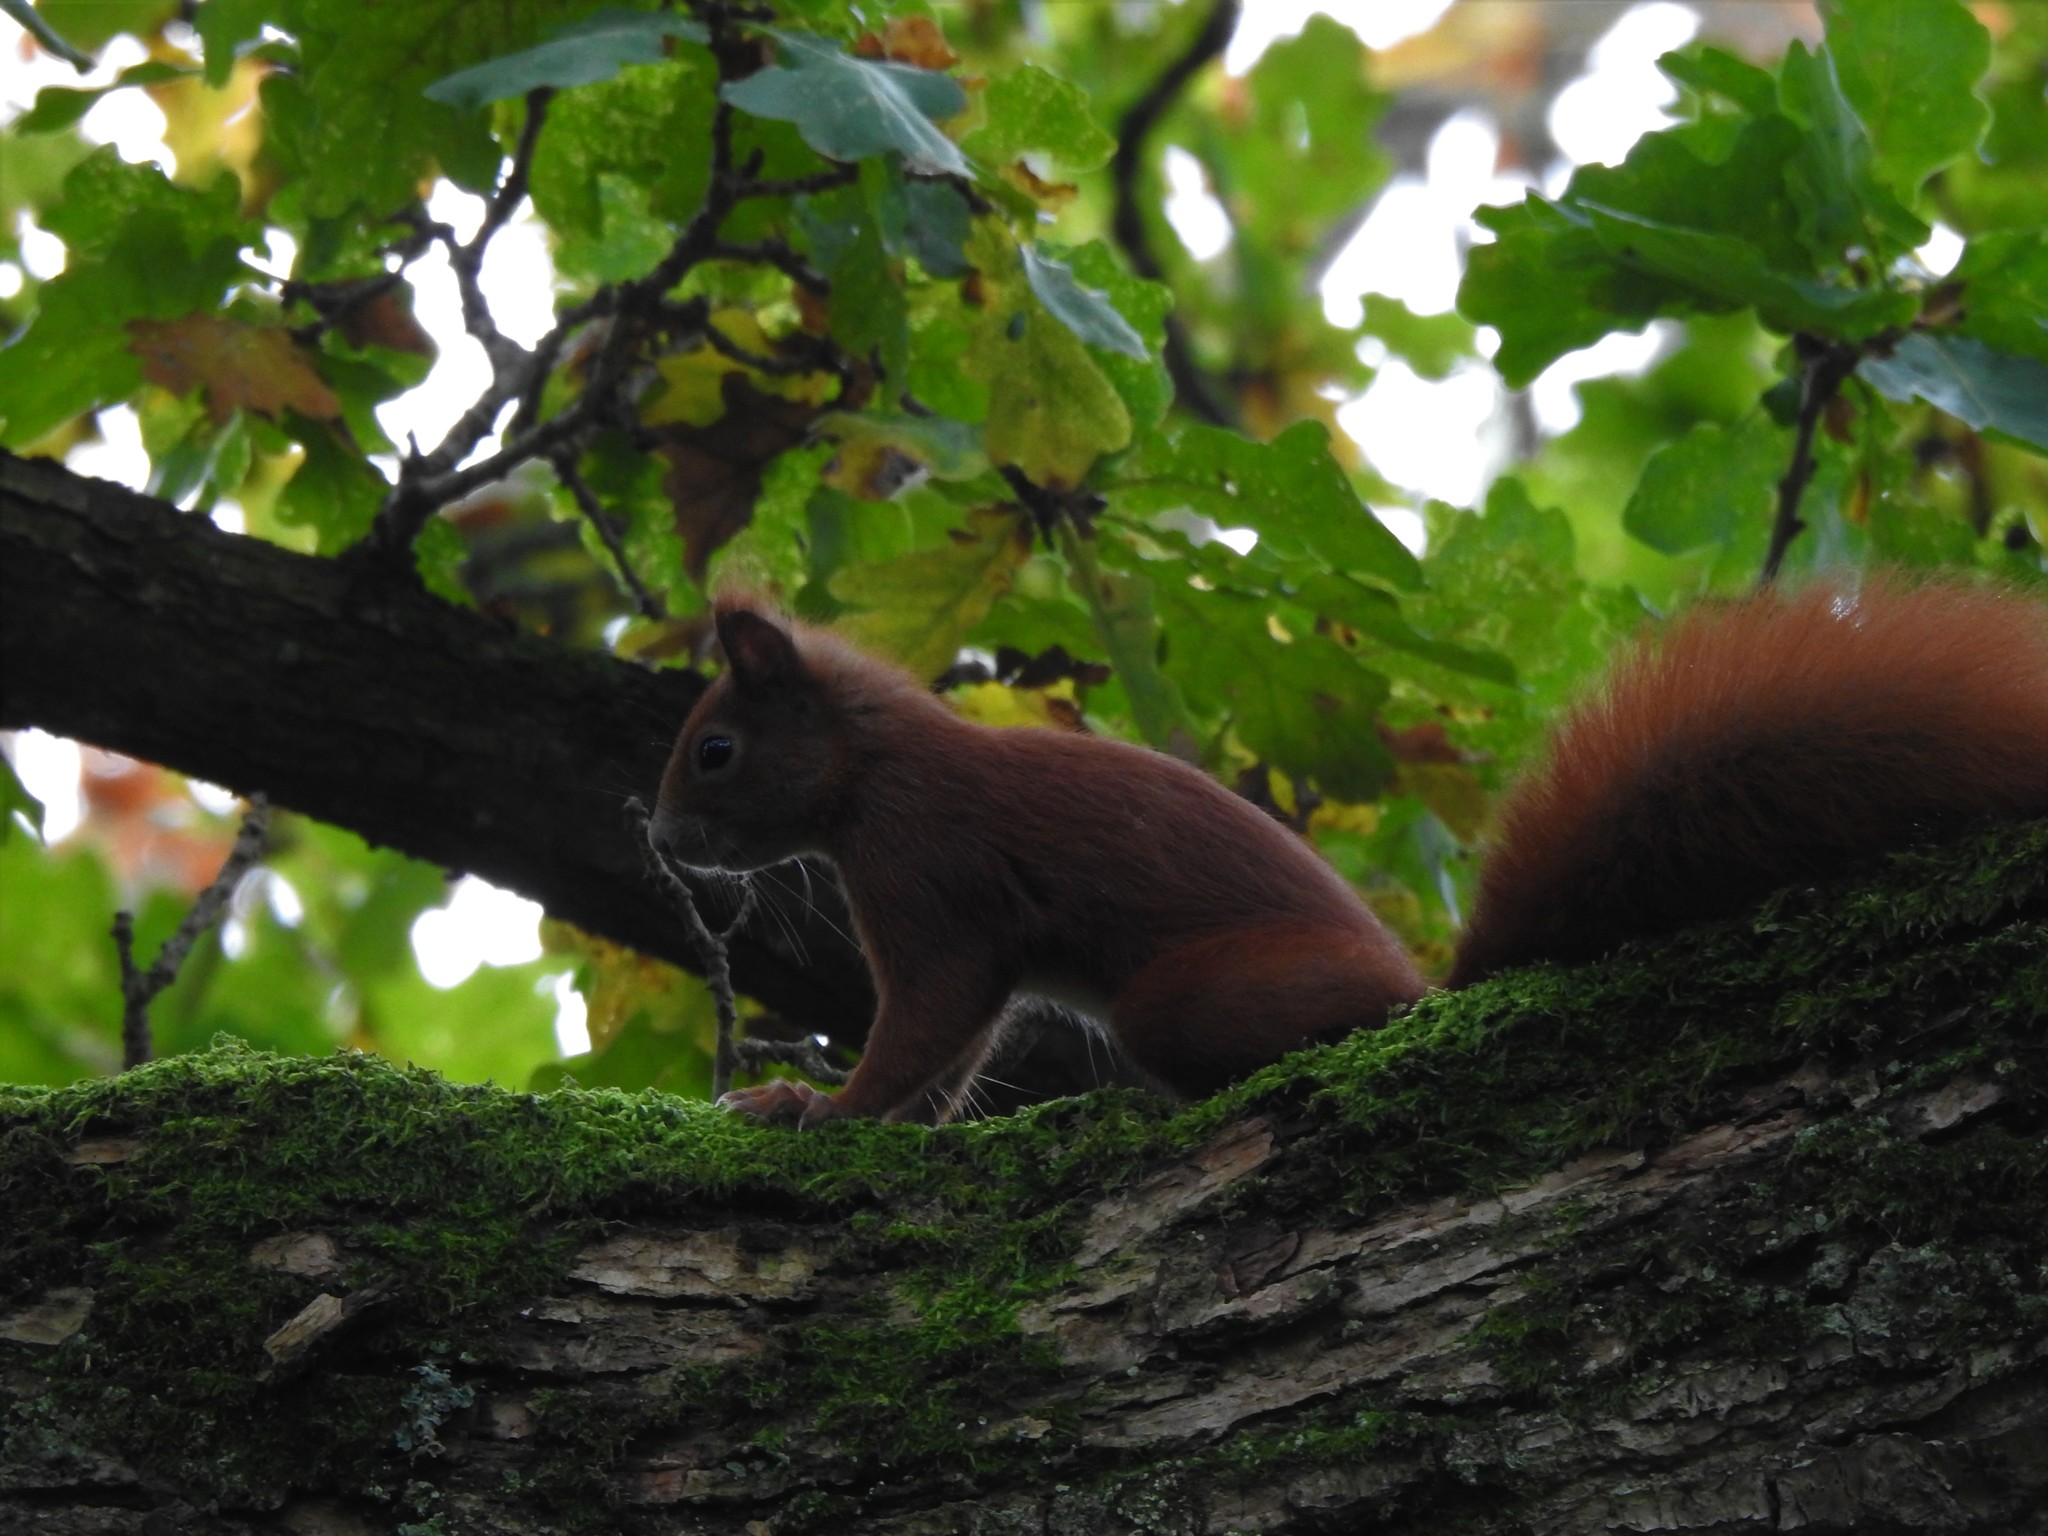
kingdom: Animalia
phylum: Chordata
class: Mammalia
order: Rodentia
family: Sciuridae
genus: Sciurus
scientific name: Sciurus vulgaris
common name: Eurasian red squirrel
